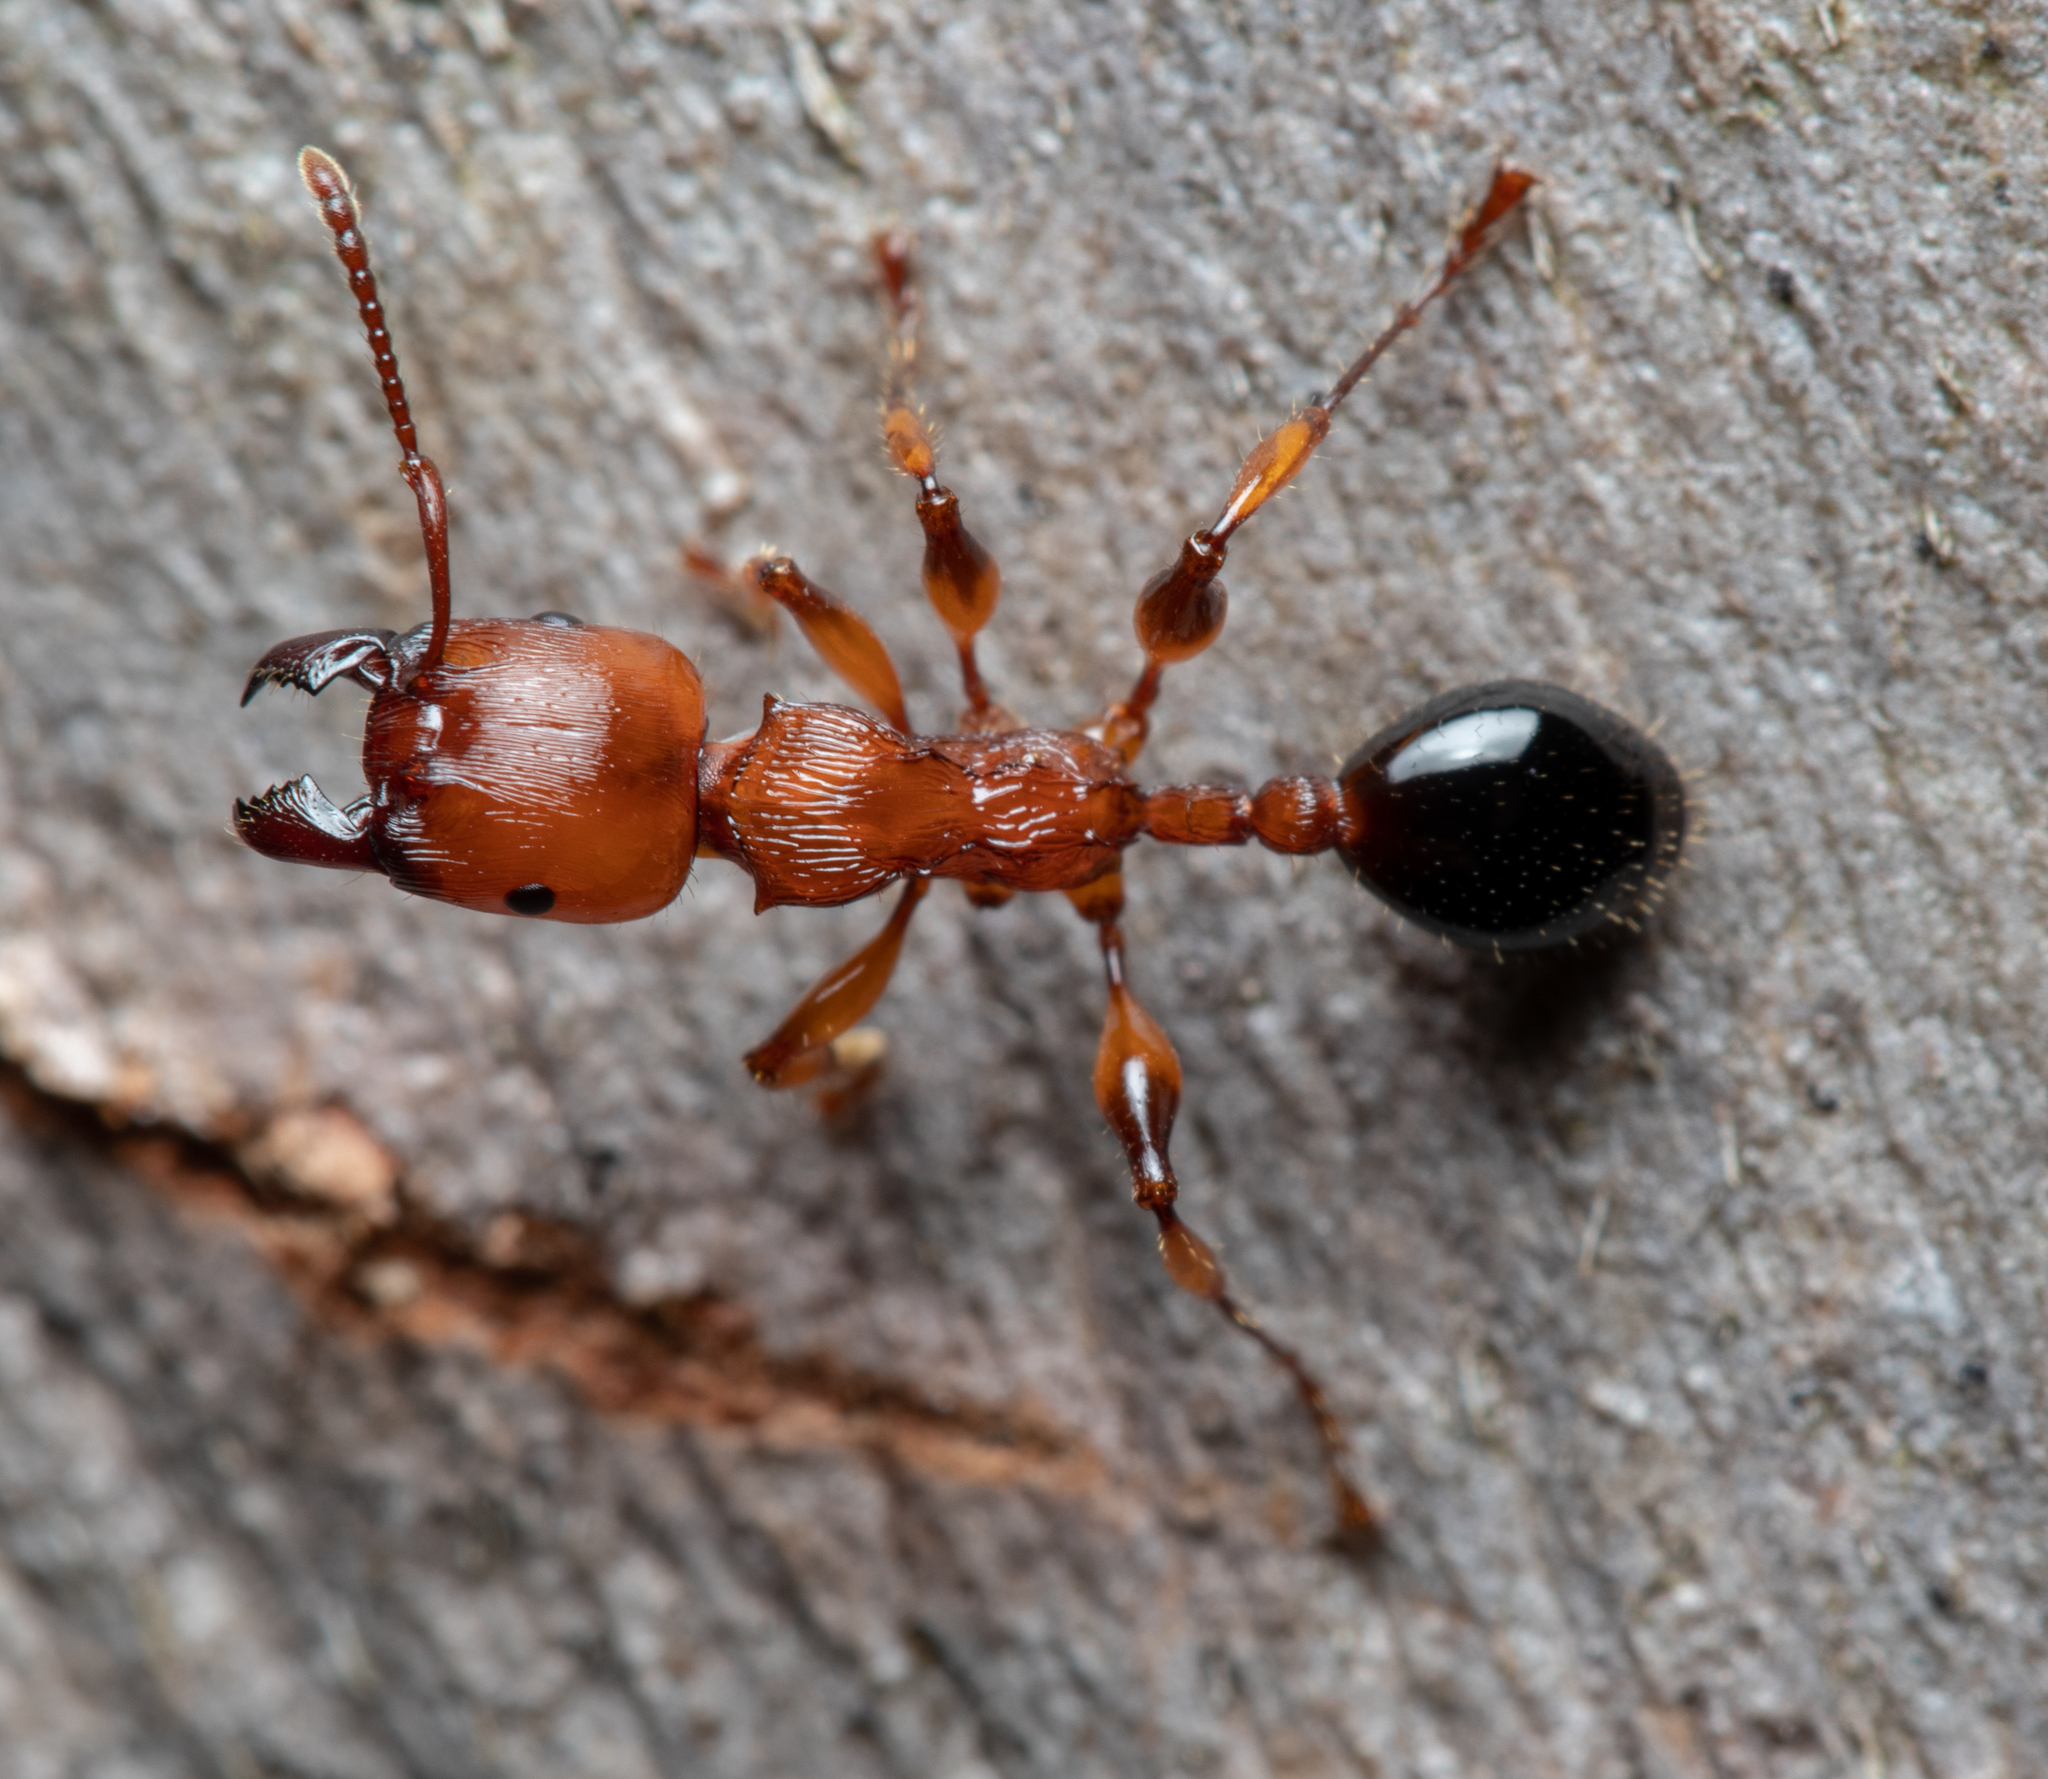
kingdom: Animalia
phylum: Arthropoda
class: Insecta
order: Hymenoptera
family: Formicidae
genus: Podomyrma
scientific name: Podomyrma gratiosa
